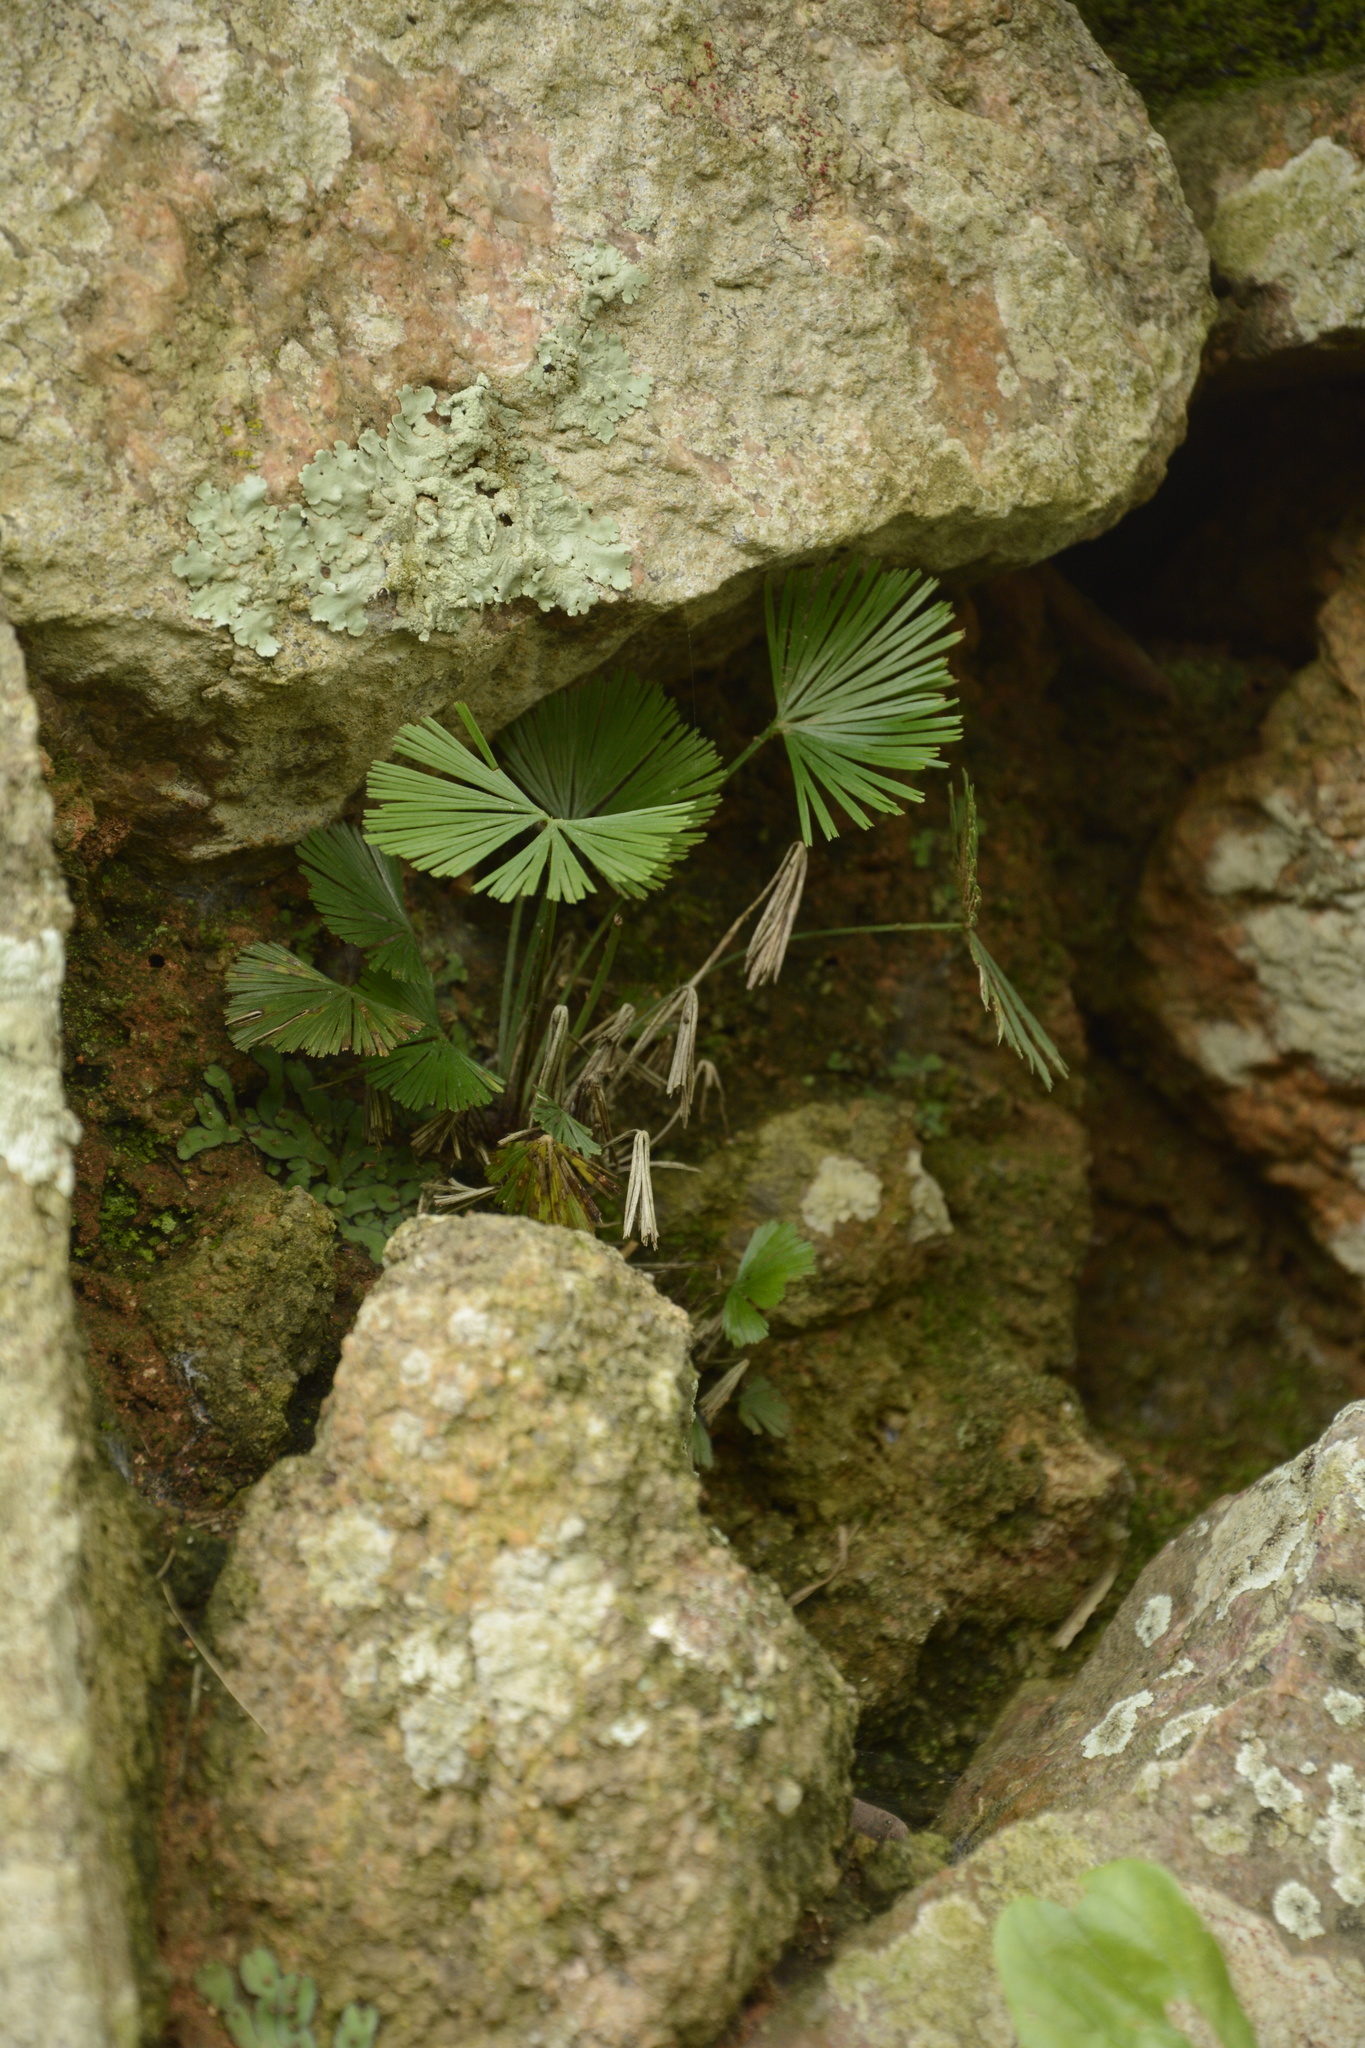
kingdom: Plantae
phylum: Tracheophyta
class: Polypodiopsida
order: Polypodiales
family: Pteridaceae
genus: Actiniopteris
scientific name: Actiniopteris radiata
